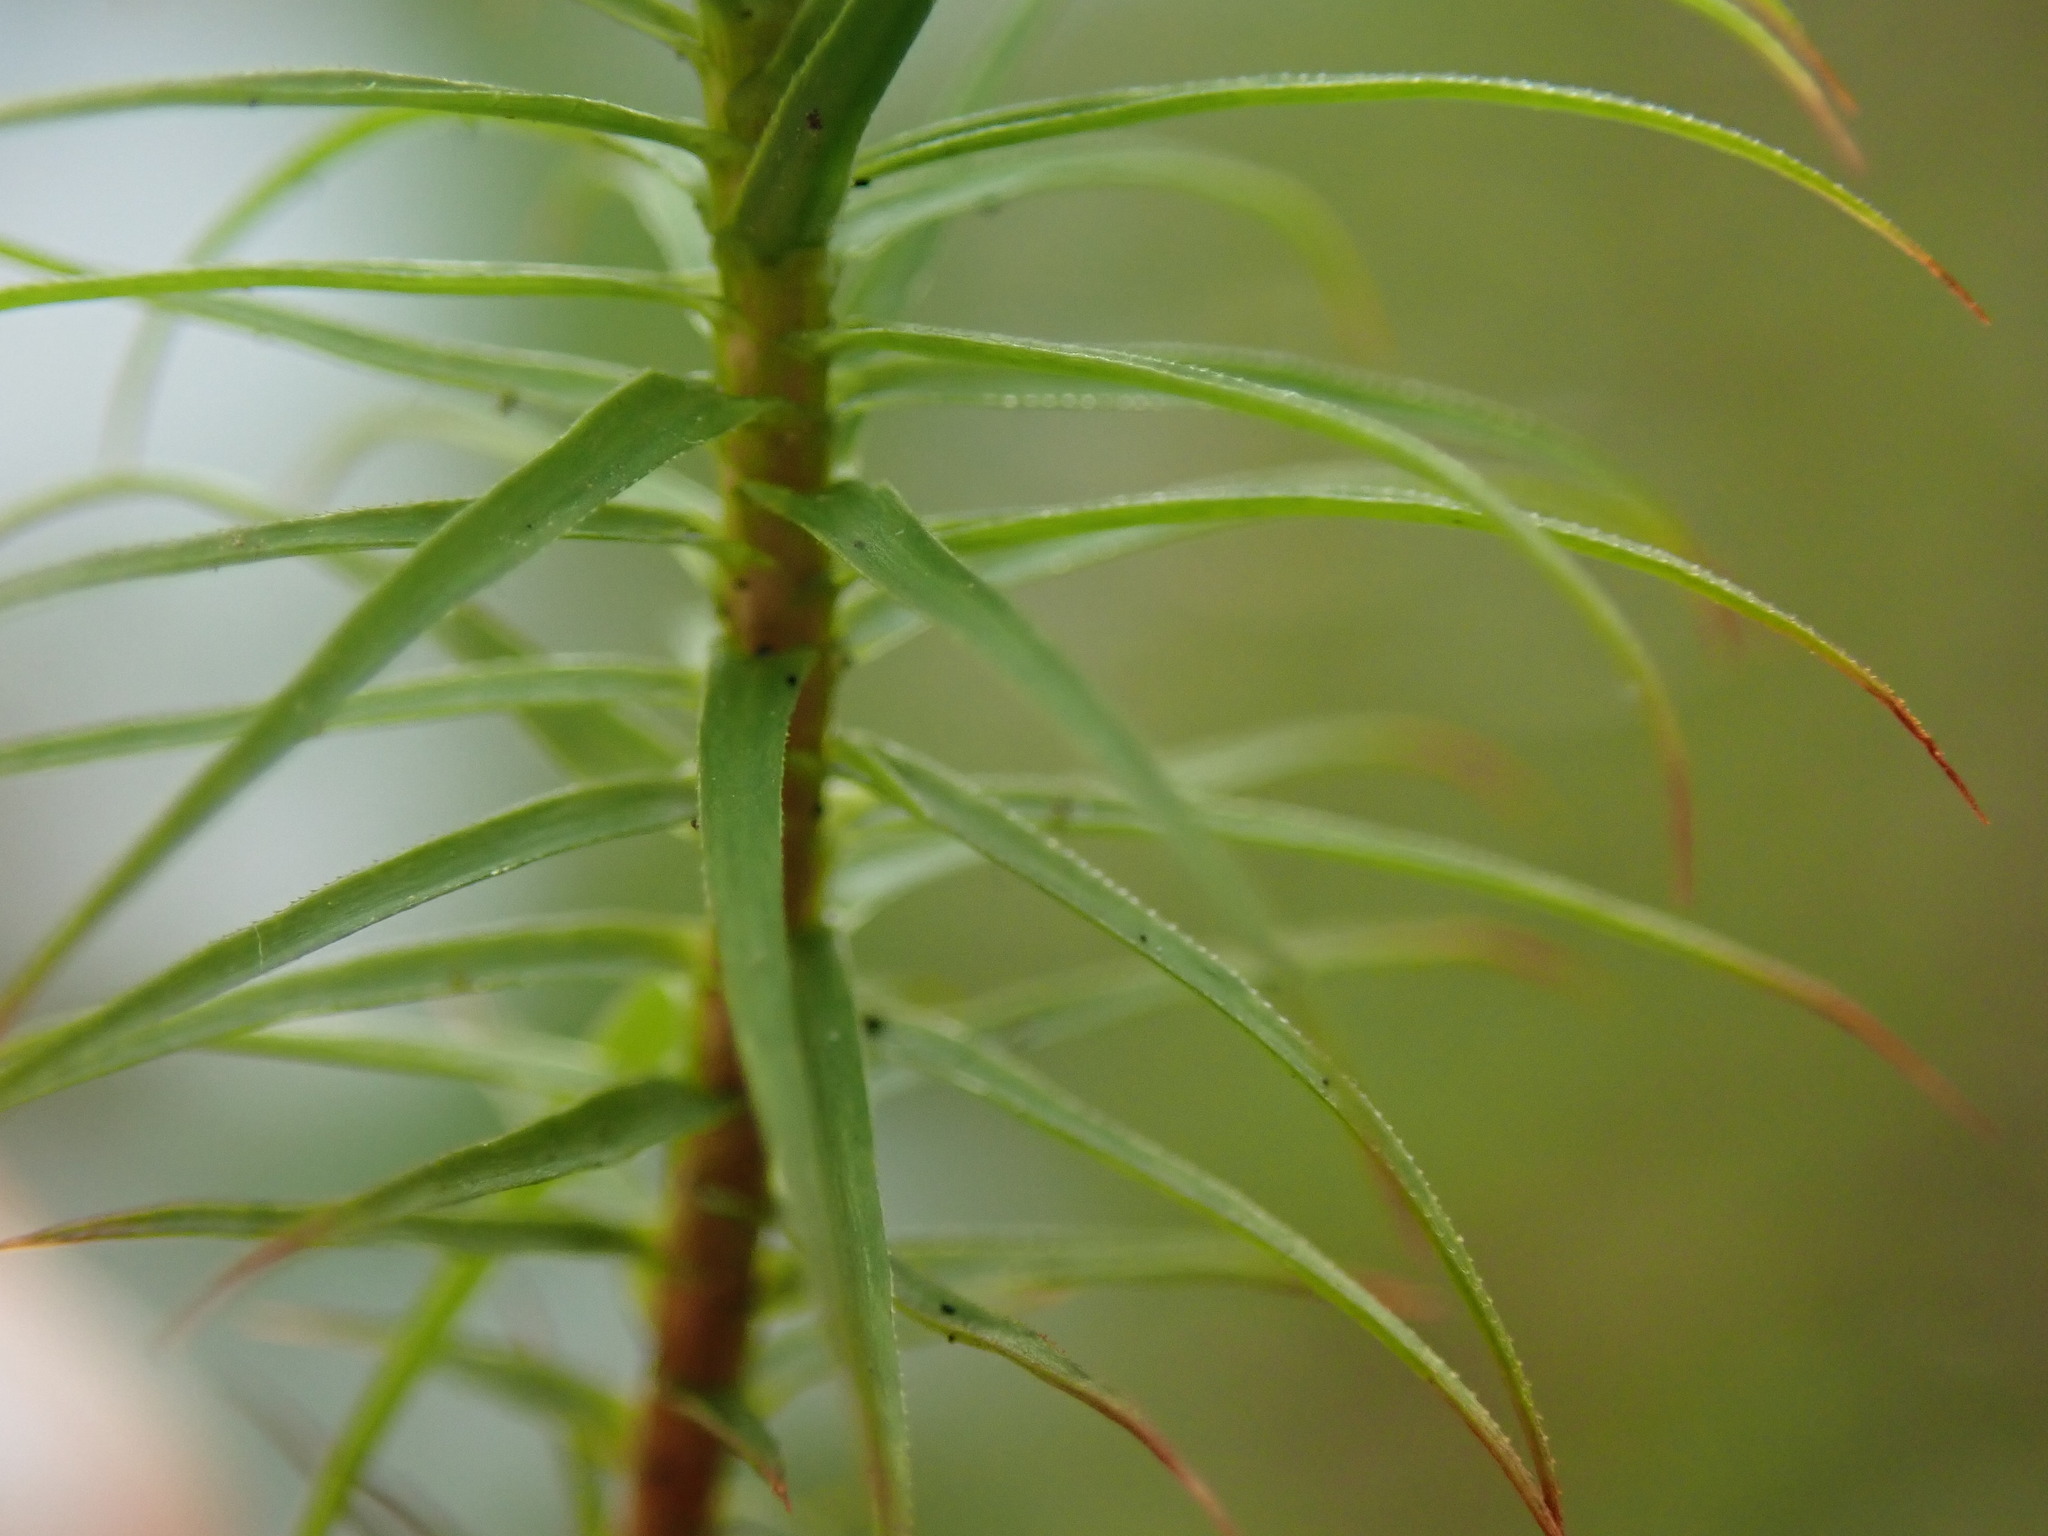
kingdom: Plantae
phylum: Bryophyta
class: Polytrichopsida
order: Polytrichales
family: Polytrichaceae
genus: Polytrichum
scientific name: Polytrichum commune
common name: Common haircap
